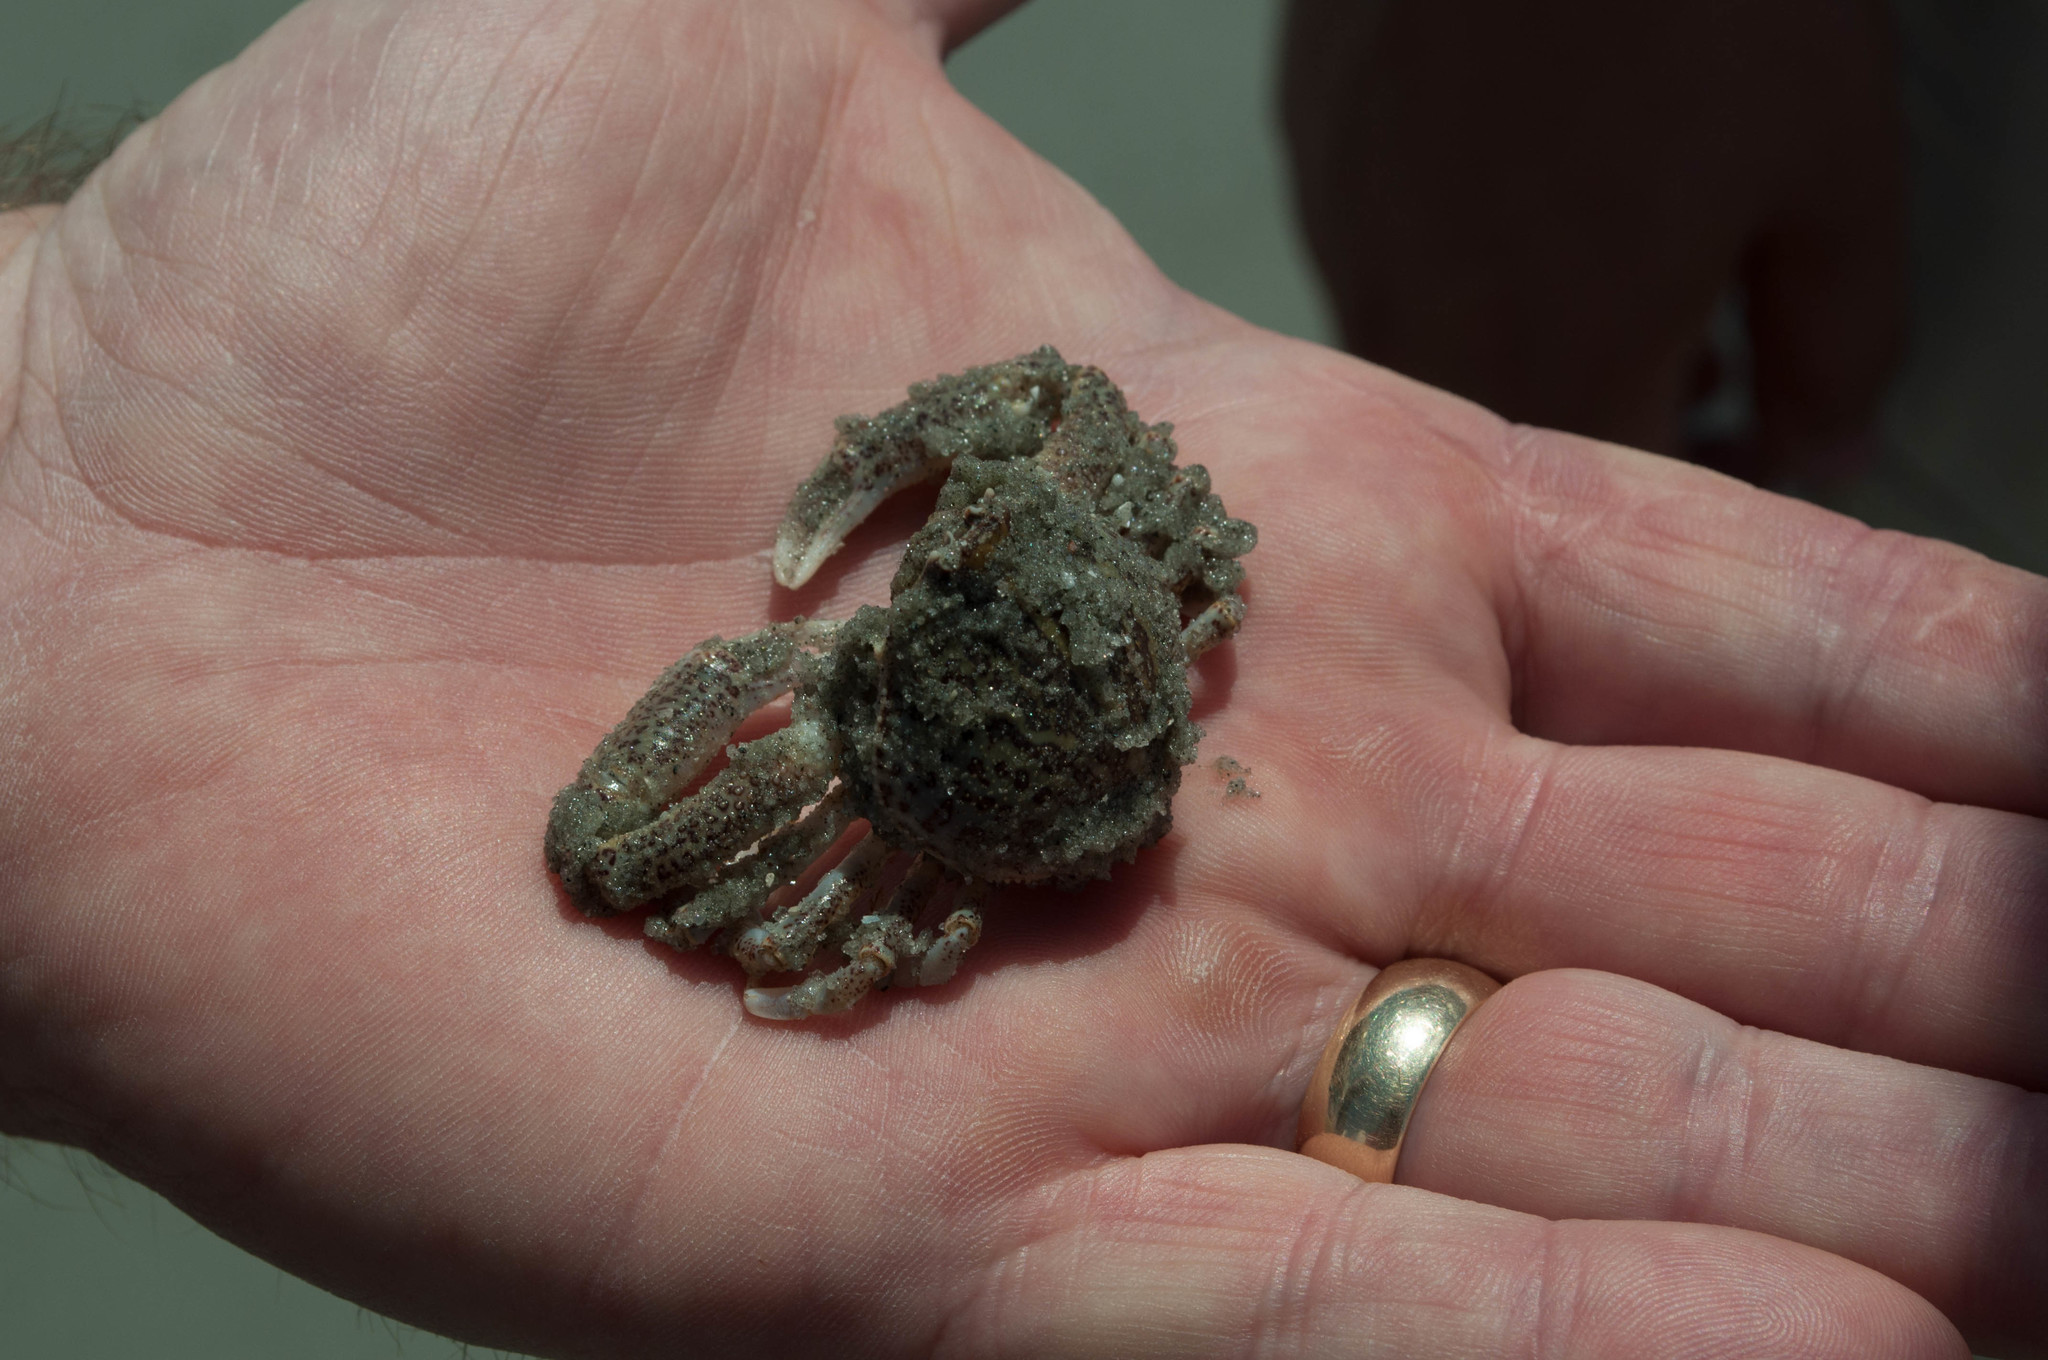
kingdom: Animalia
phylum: Arthropoda
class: Malacostraca
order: Decapoda
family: Leucosiidae
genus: Persephona
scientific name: Persephona aquilonaris
